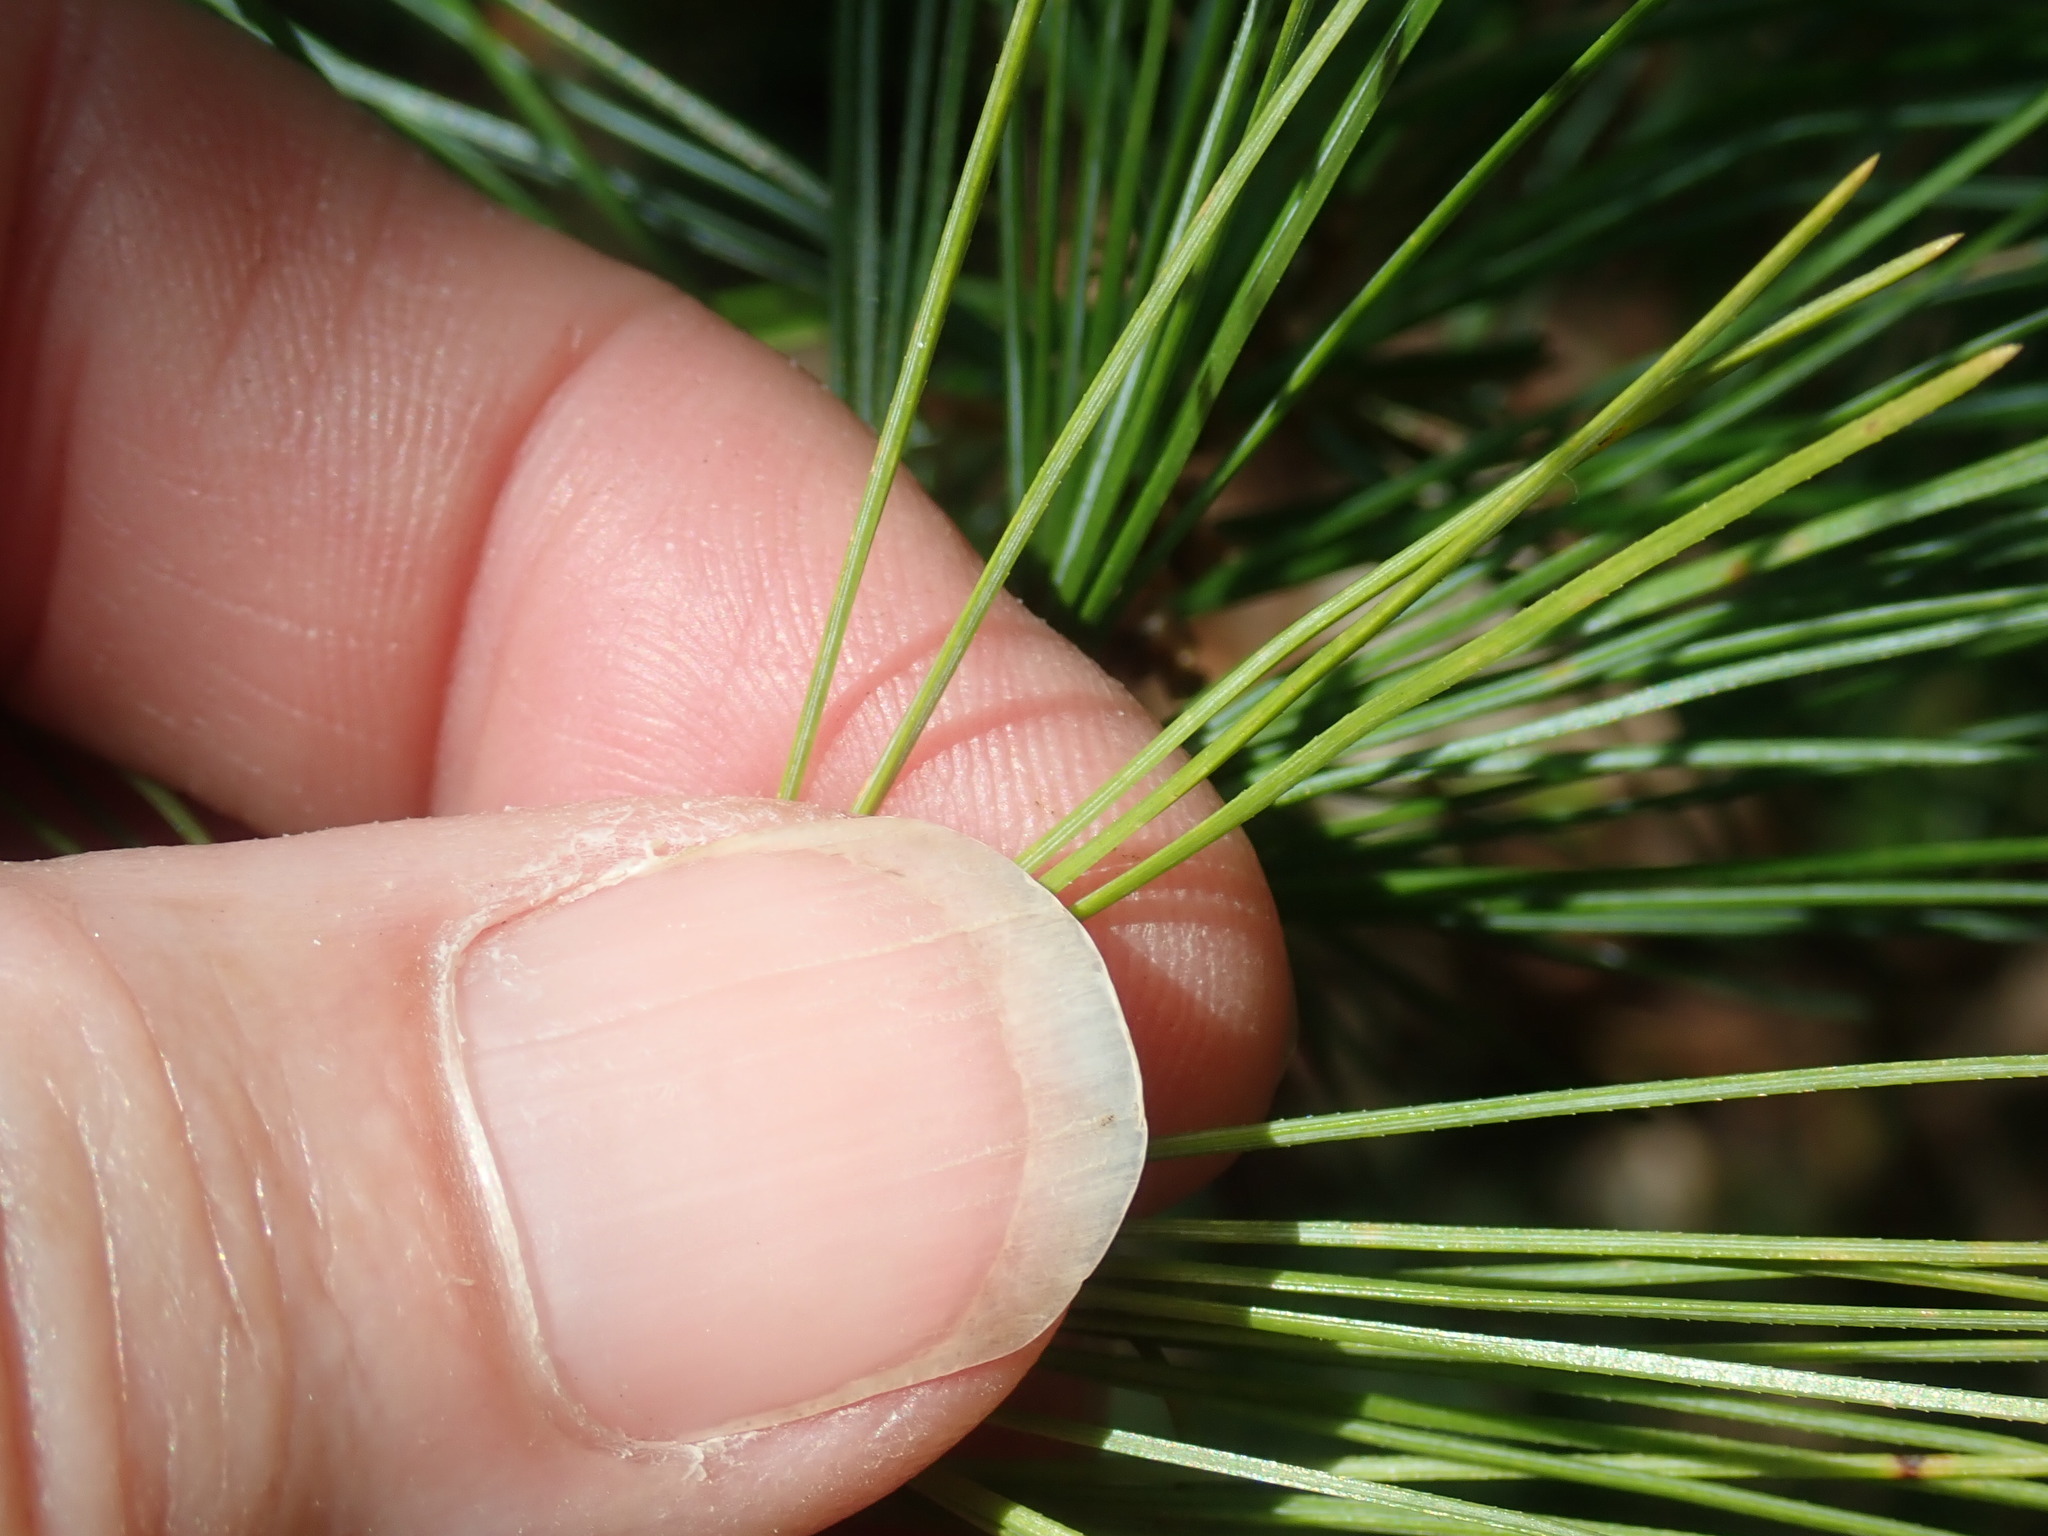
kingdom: Plantae
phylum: Tracheophyta
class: Pinopsida
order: Pinales
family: Pinaceae
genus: Pinus
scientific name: Pinus strobus
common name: Weymouth pine
